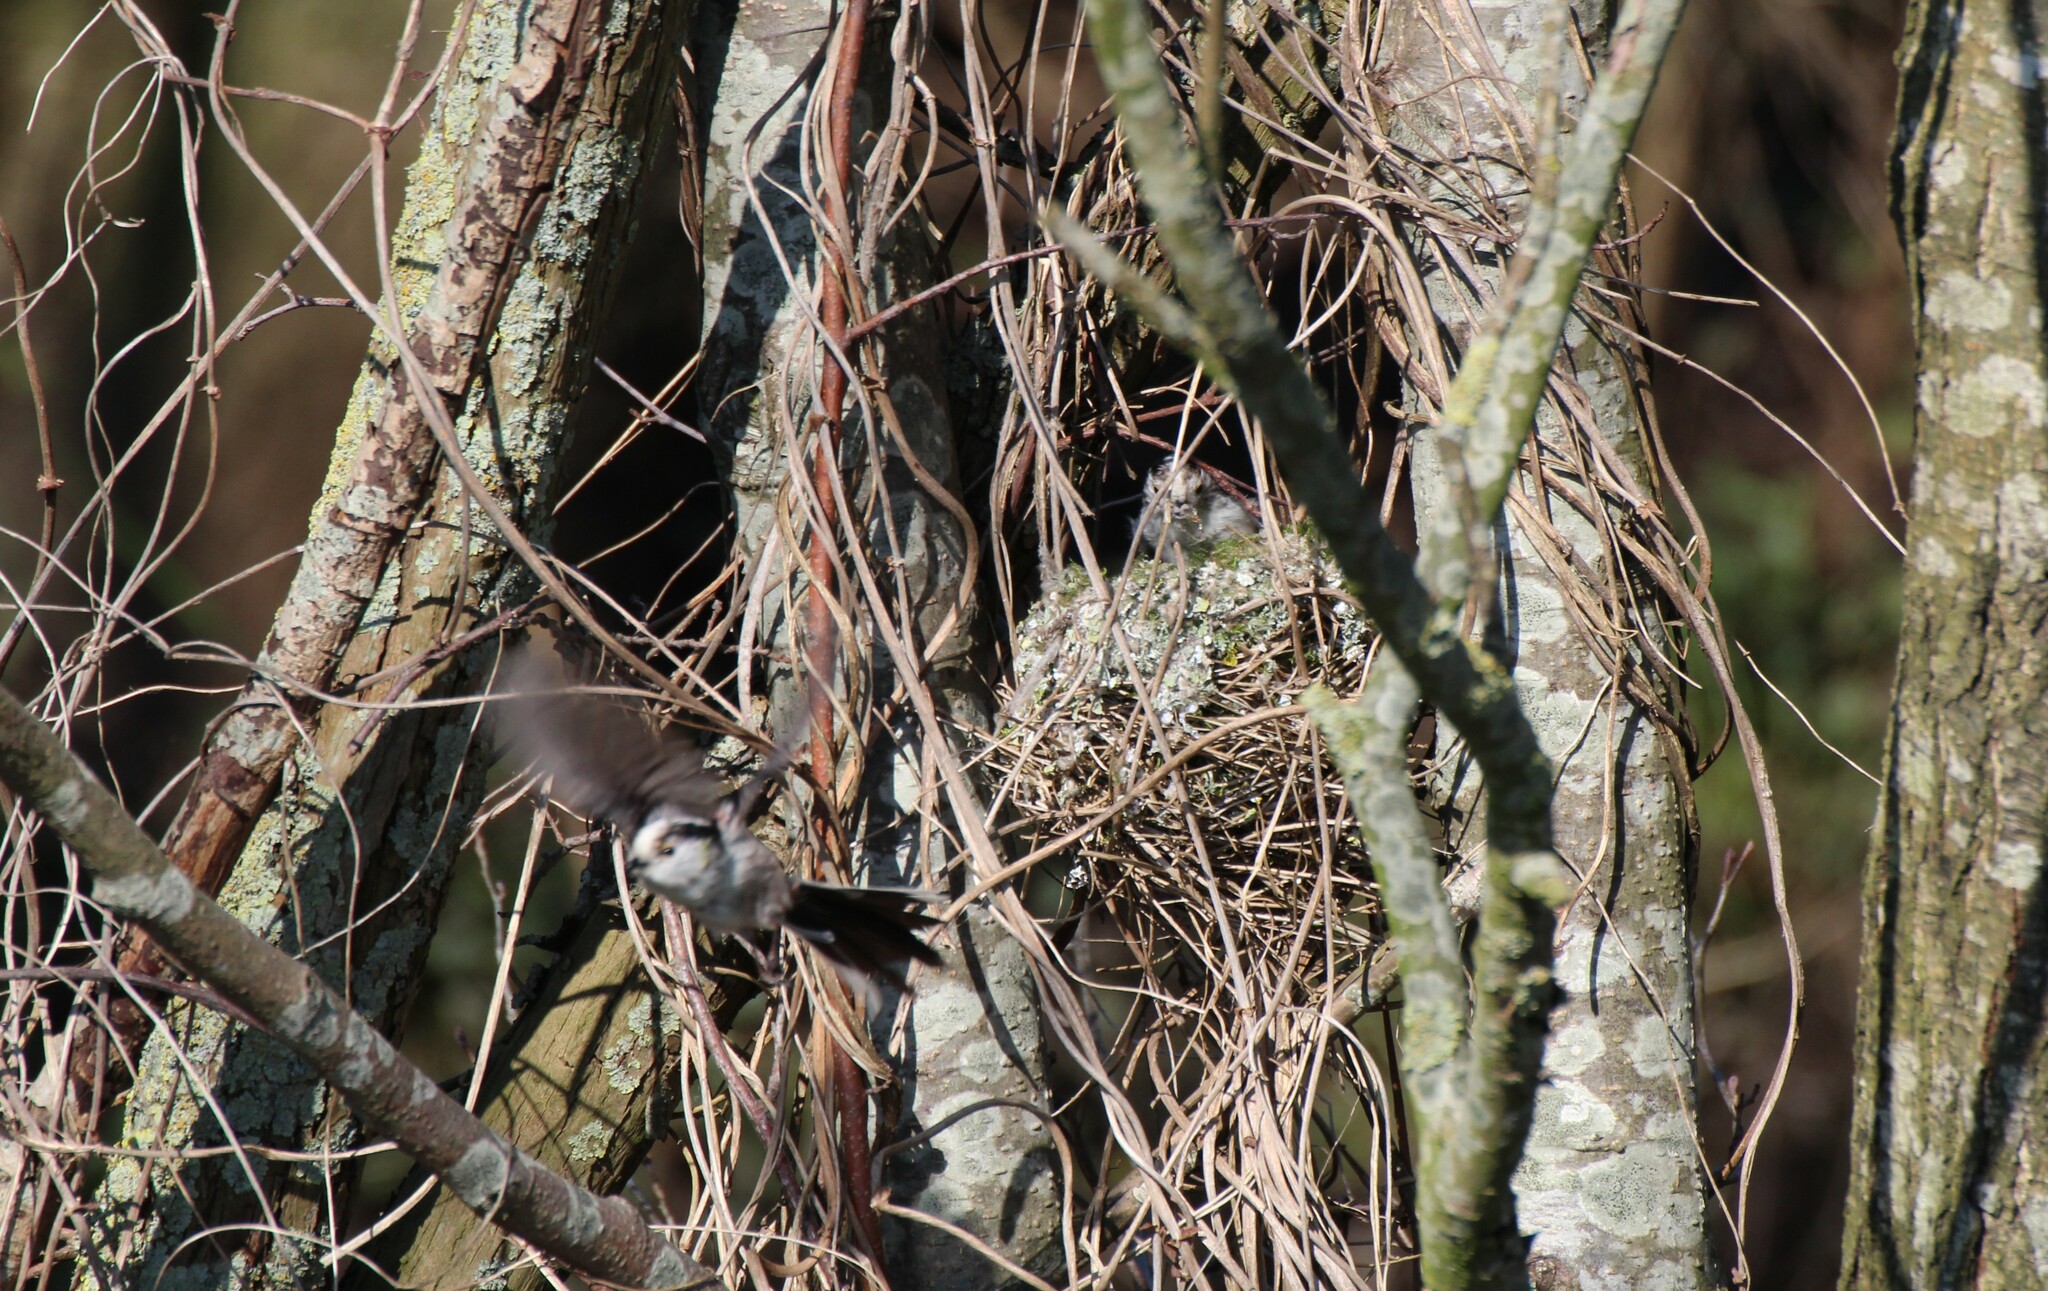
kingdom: Animalia
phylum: Chordata
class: Aves
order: Passeriformes
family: Aegithalidae
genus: Aegithalos
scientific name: Aegithalos caudatus
